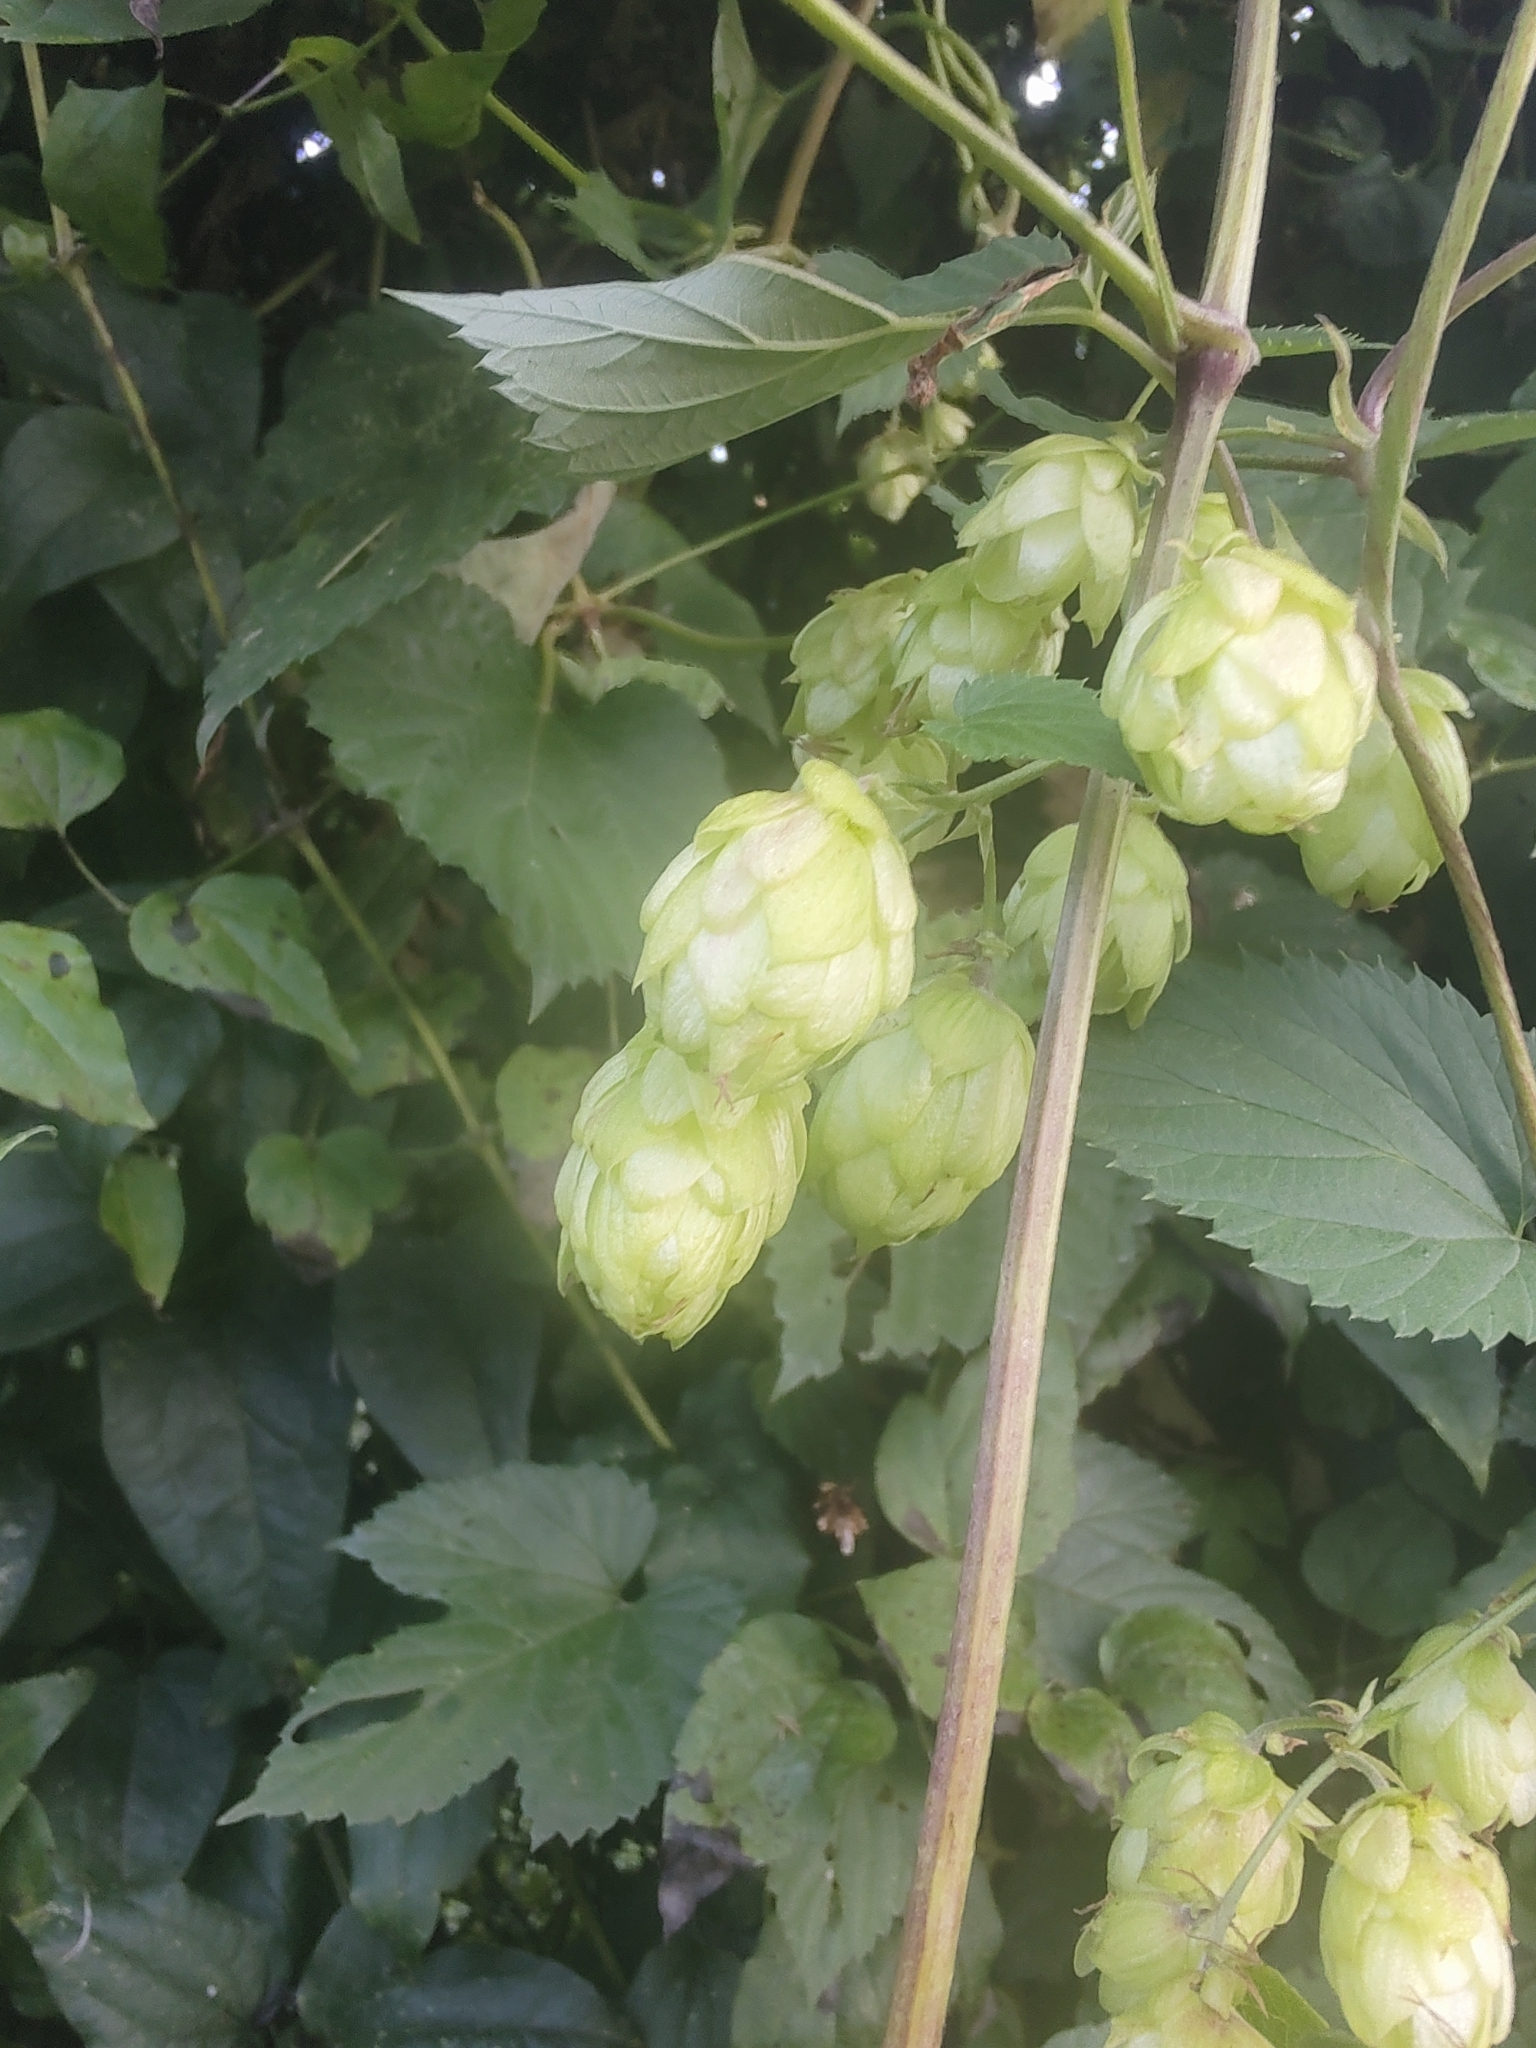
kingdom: Plantae
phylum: Tracheophyta
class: Magnoliopsida
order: Rosales
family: Cannabaceae
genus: Humulus
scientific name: Humulus lupulus
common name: Hop
